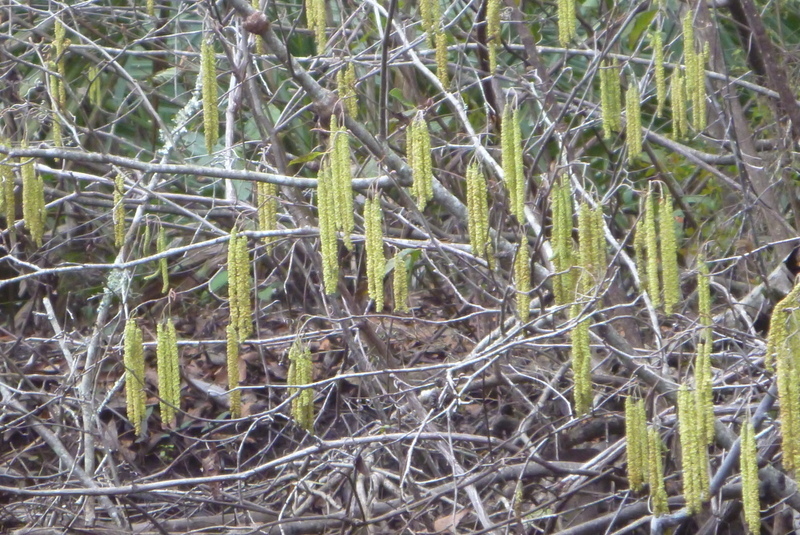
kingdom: Plantae
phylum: Tracheophyta
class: Magnoliopsida
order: Fagales
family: Betulaceae
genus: Alnus
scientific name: Alnus serrulata
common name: Hazel alder
